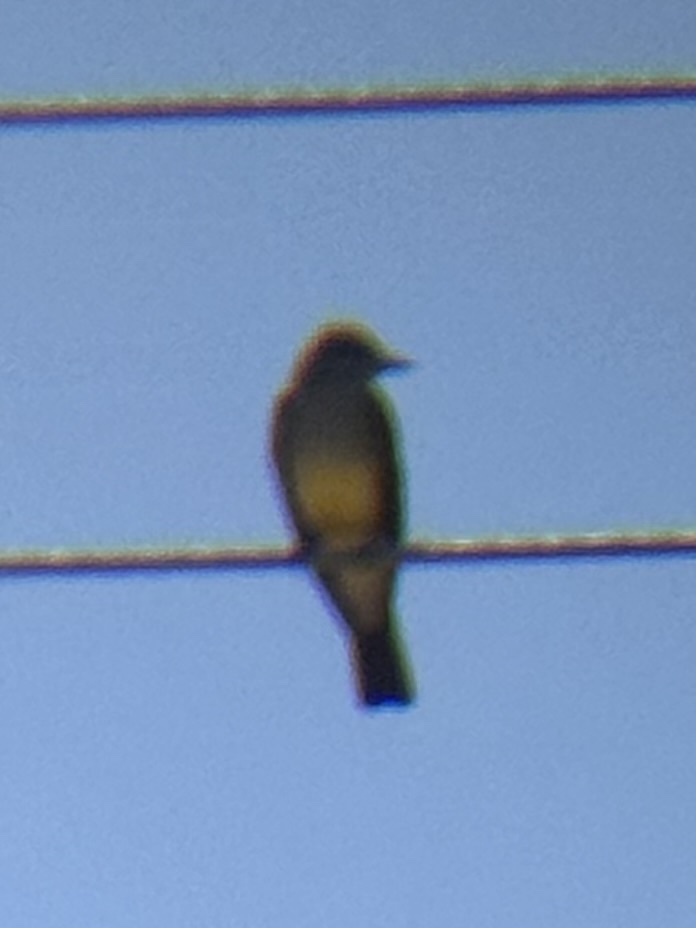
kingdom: Animalia
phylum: Chordata
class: Aves
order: Passeriformes
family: Tyrannidae
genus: Tyrannus
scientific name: Tyrannus vociferans
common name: Cassin's kingbird
